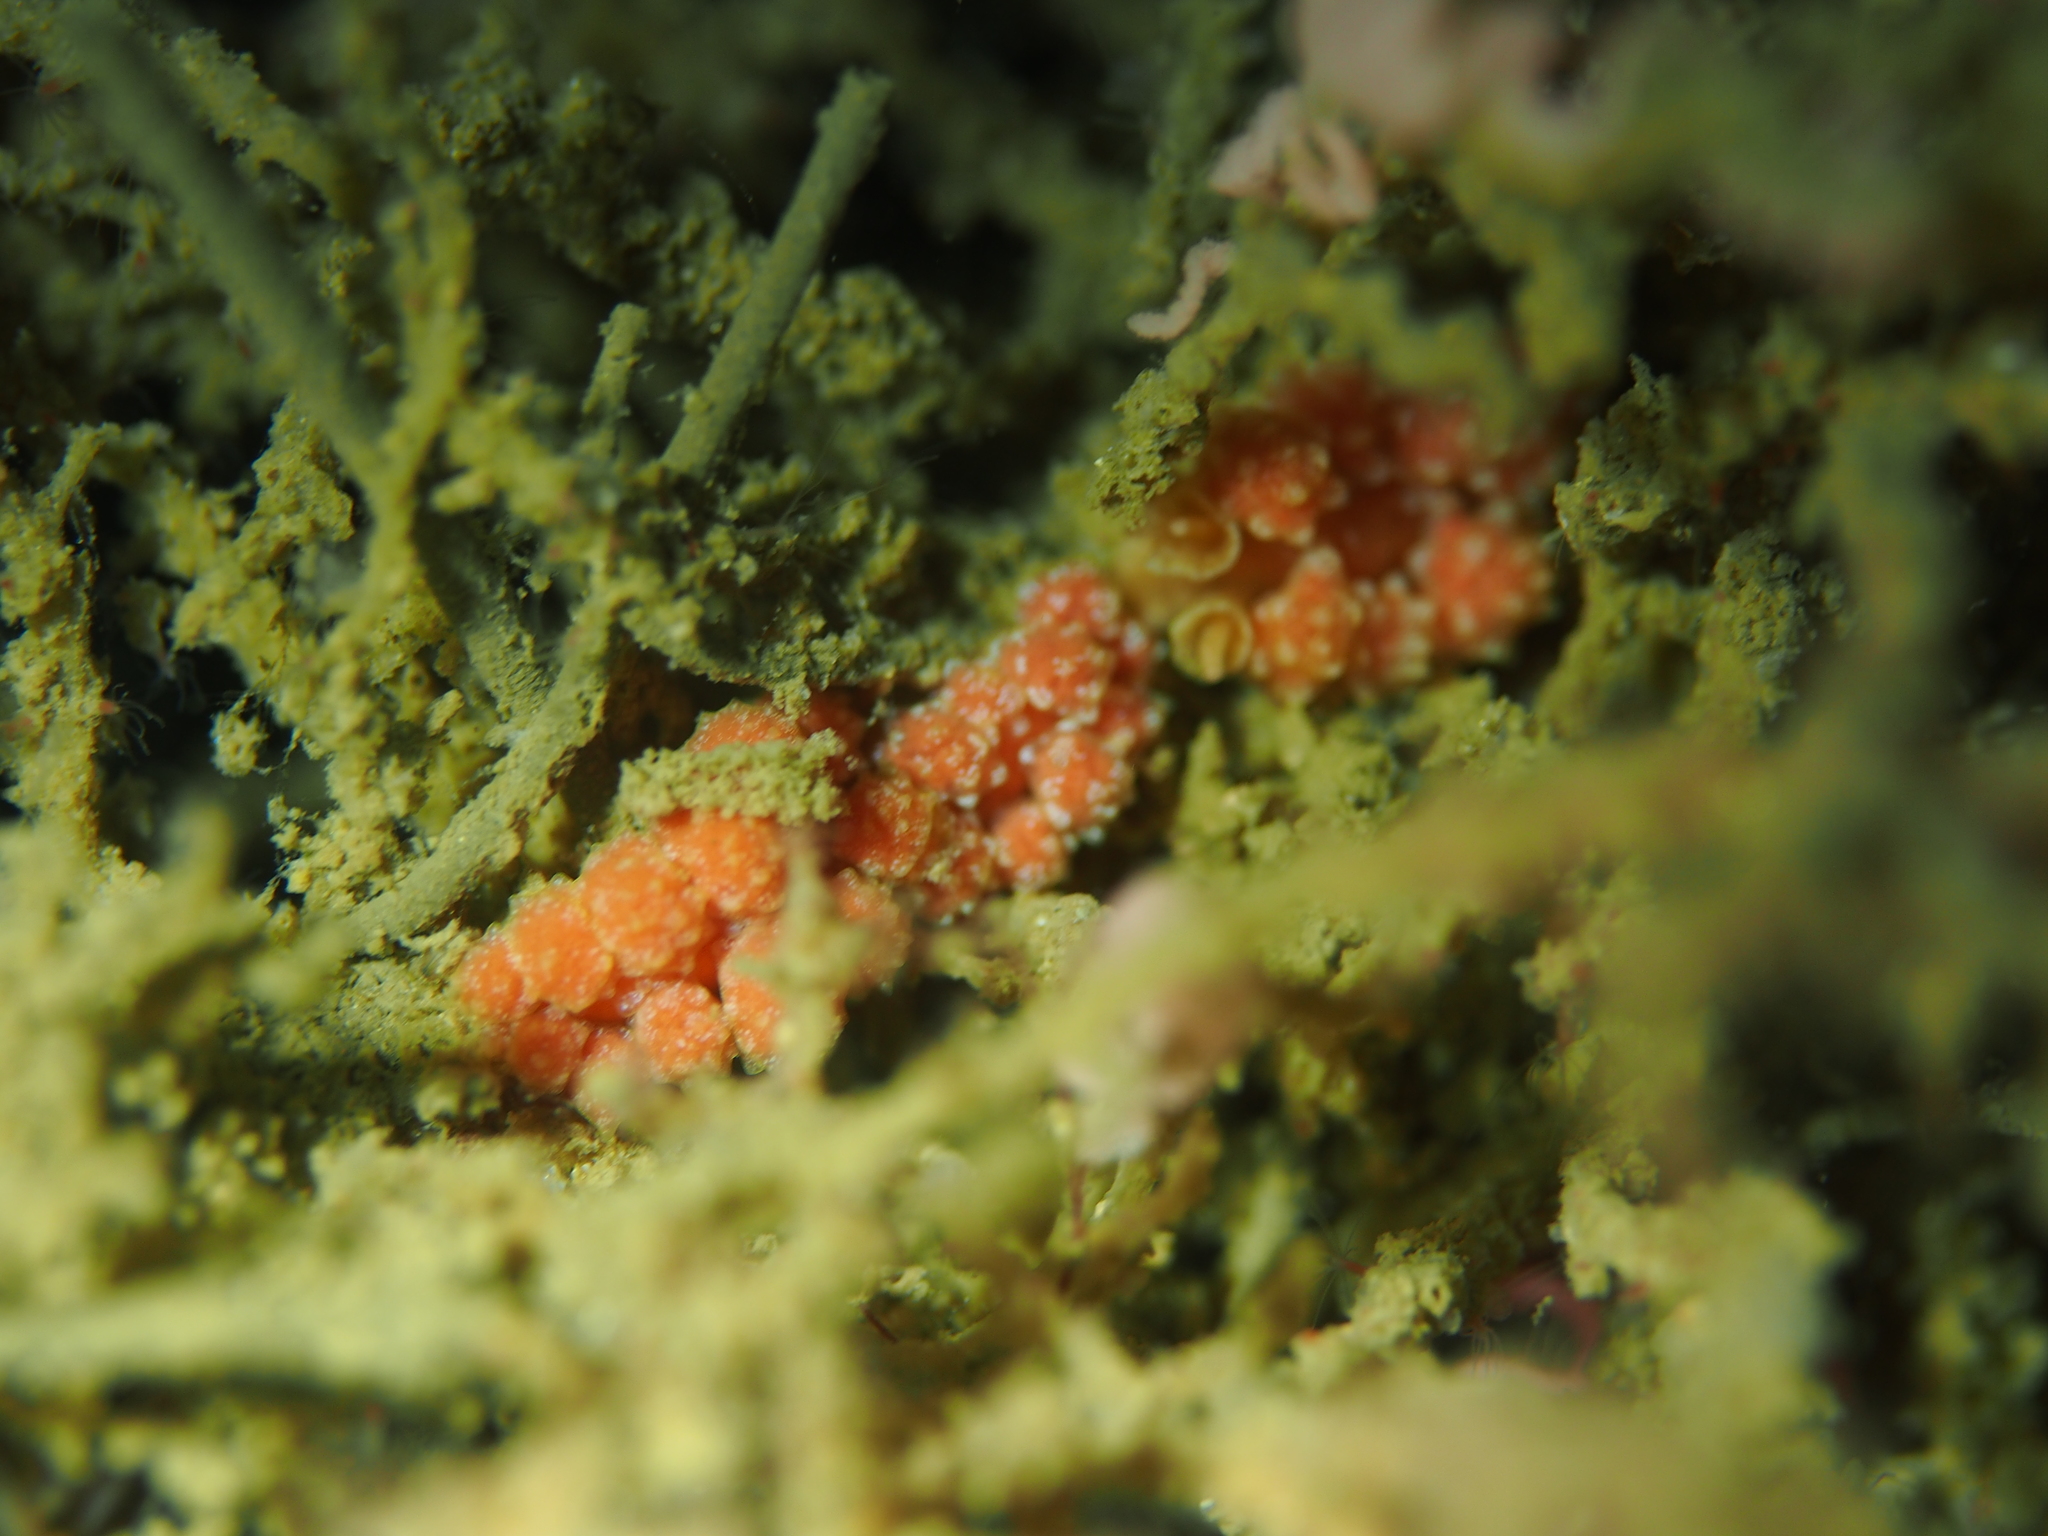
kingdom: Animalia
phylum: Mollusca
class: Gastropoda
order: Nudibranchia
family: Dotidae
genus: Doto
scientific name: Doto fragilis
